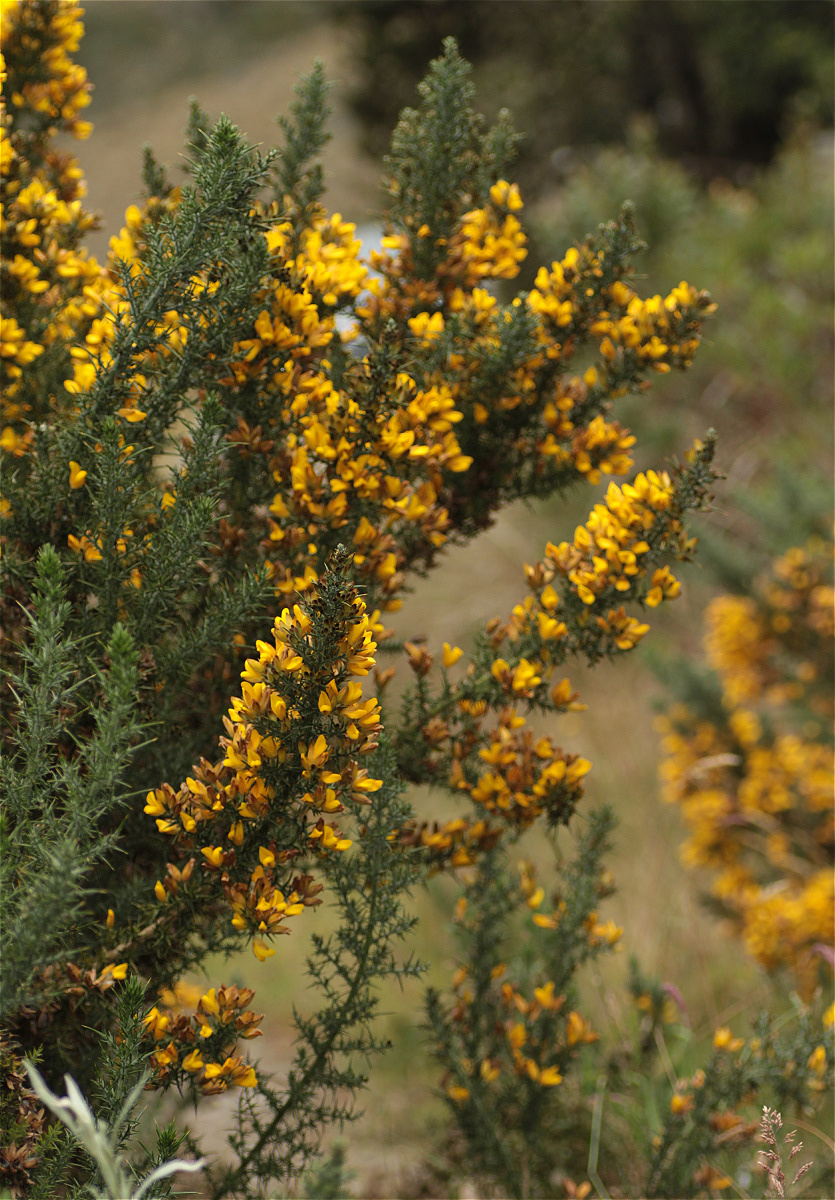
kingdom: Plantae
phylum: Tracheophyta
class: Magnoliopsida
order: Fabales
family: Fabaceae
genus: Ulex
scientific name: Ulex europaeus
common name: Common gorse
